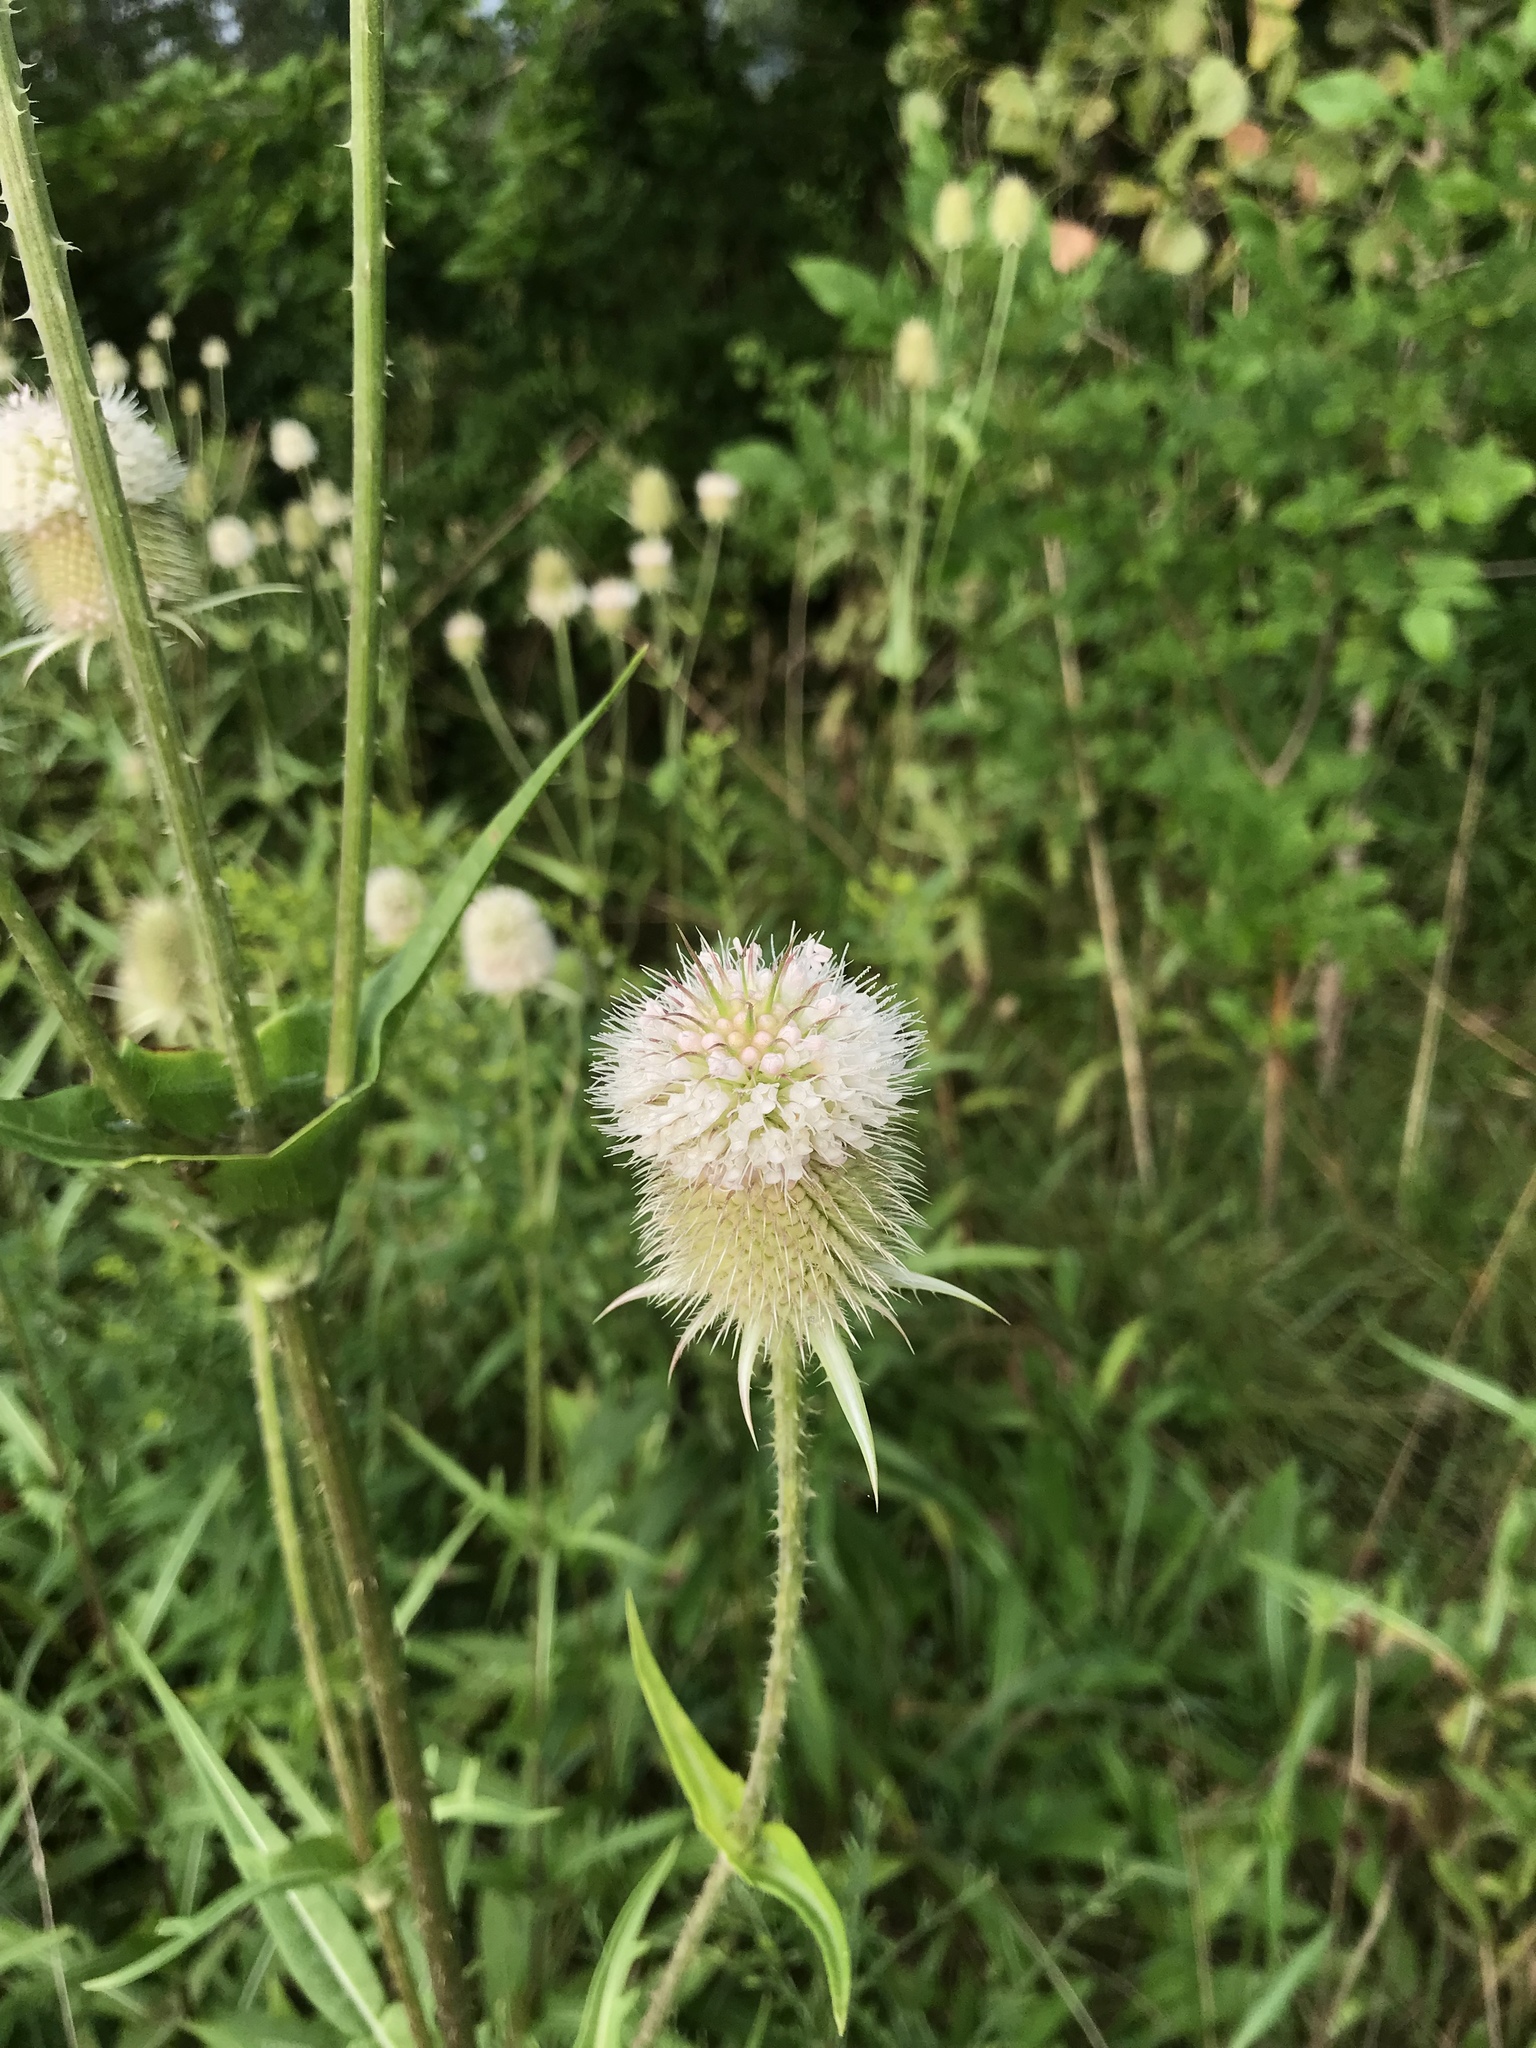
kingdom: Plantae
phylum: Tracheophyta
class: Magnoliopsida
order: Dipsacales
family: Caprifoliaceae
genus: Dipsacus
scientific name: Dipsacus laciniatus
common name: Cut-leaved teasel
